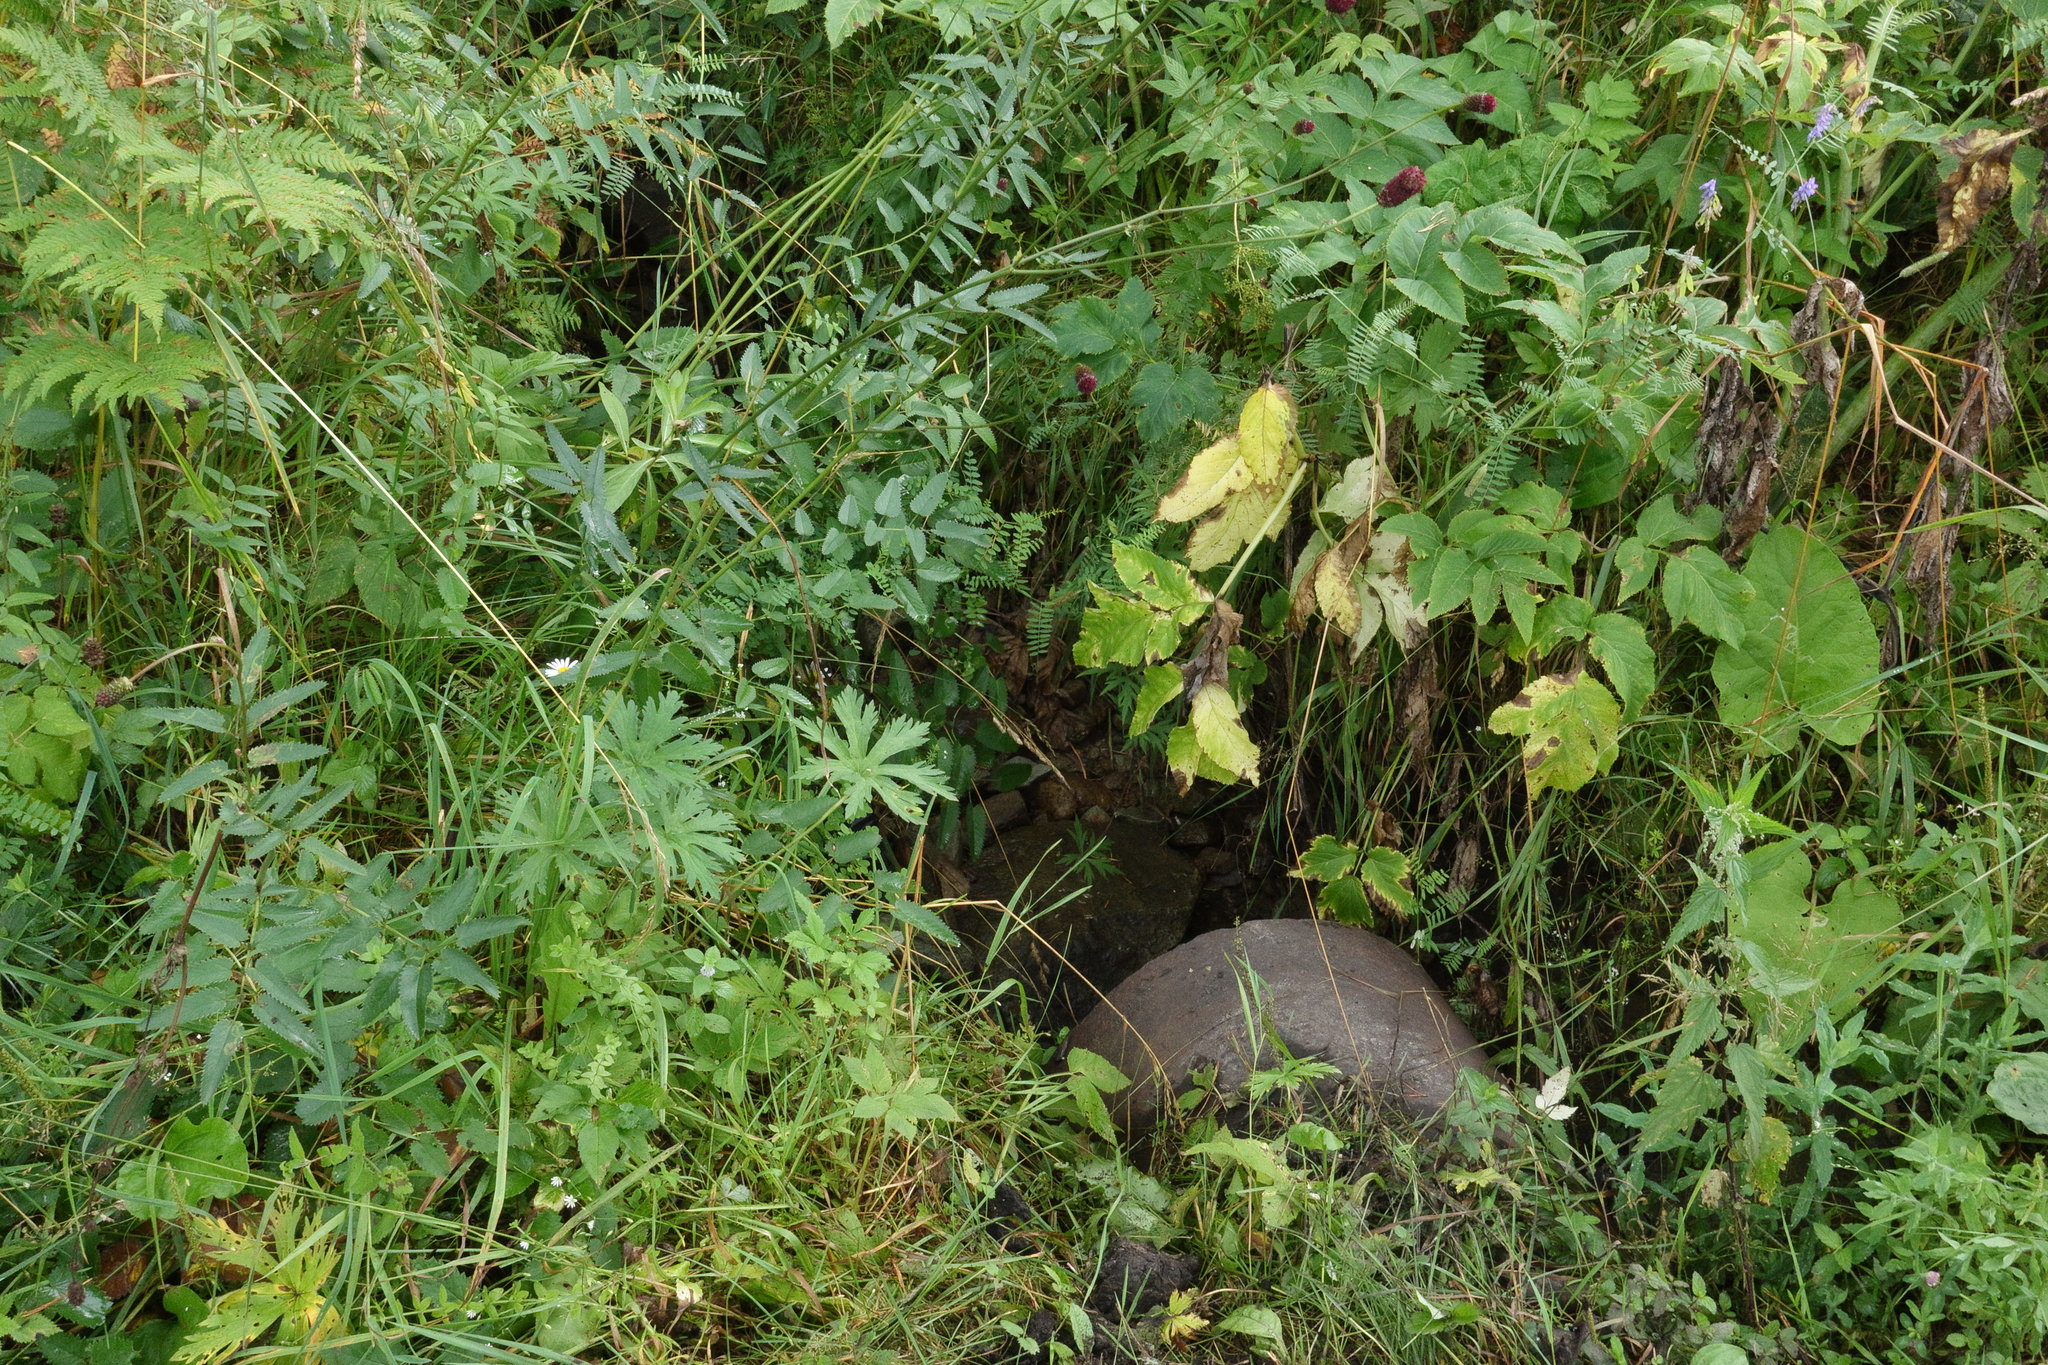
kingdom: Plantae
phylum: Tracheophyta
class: Magnoliopsida
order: Rosales
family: Rosaceae
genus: Sanguisorba
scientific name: Sanguisorba officinalis
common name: Great burnet
